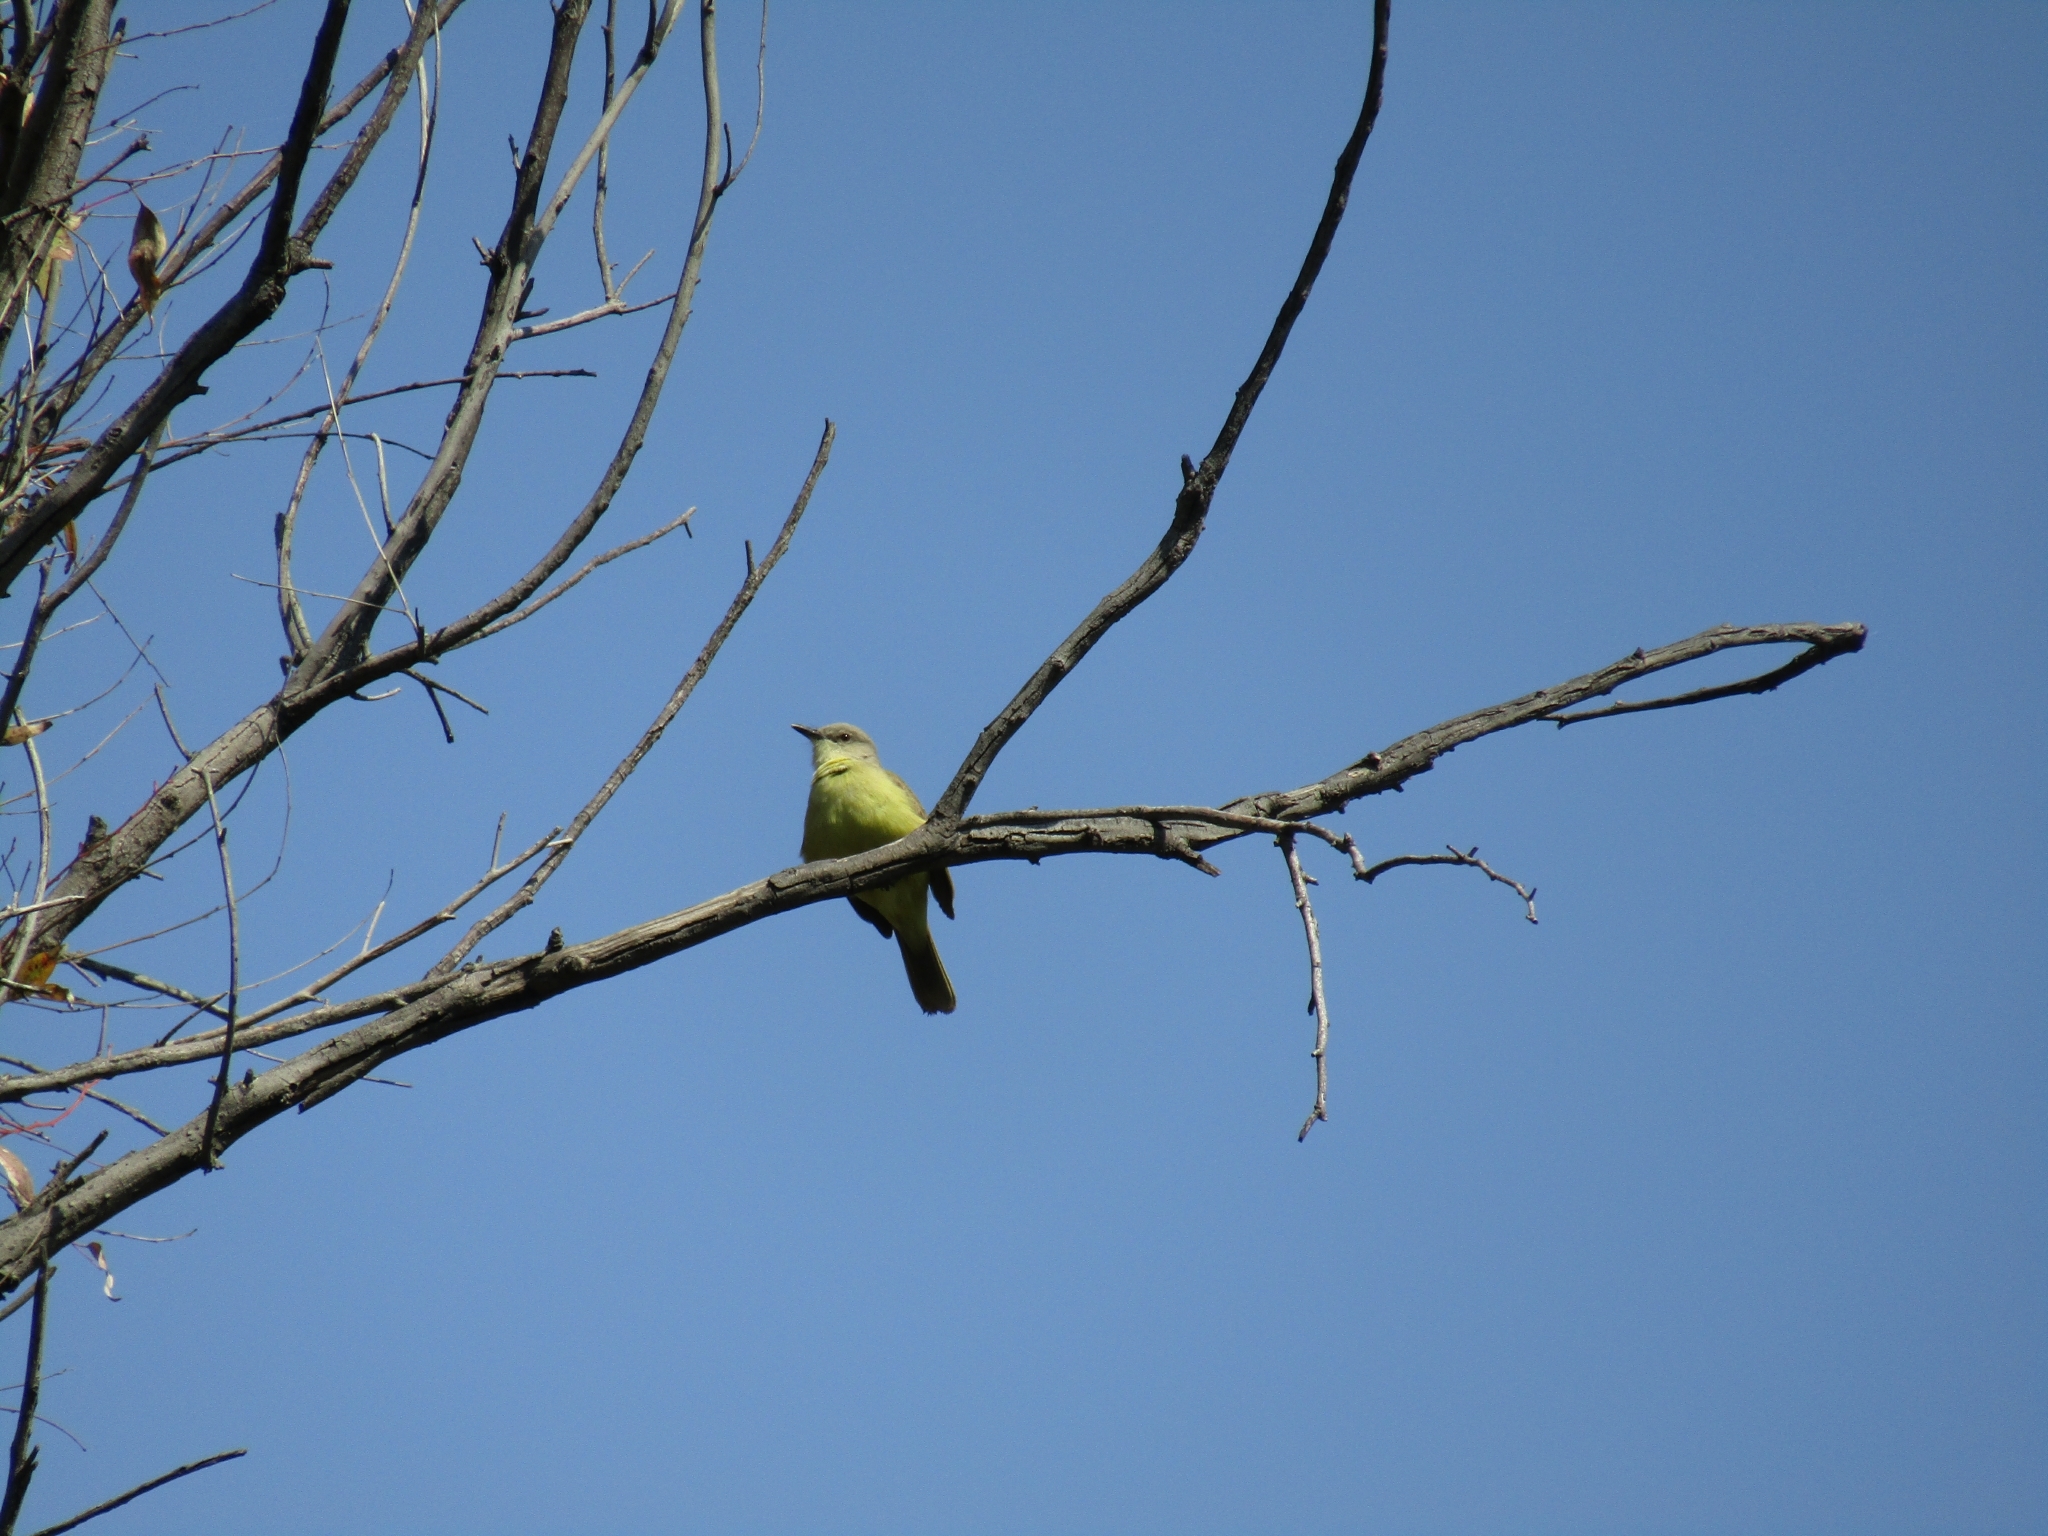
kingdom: Animalia
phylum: Chordata
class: Aves
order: Passeriformes
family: Tyrannidae
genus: Machetornis
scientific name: Machetornis rixosa
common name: Cattle tyrant
